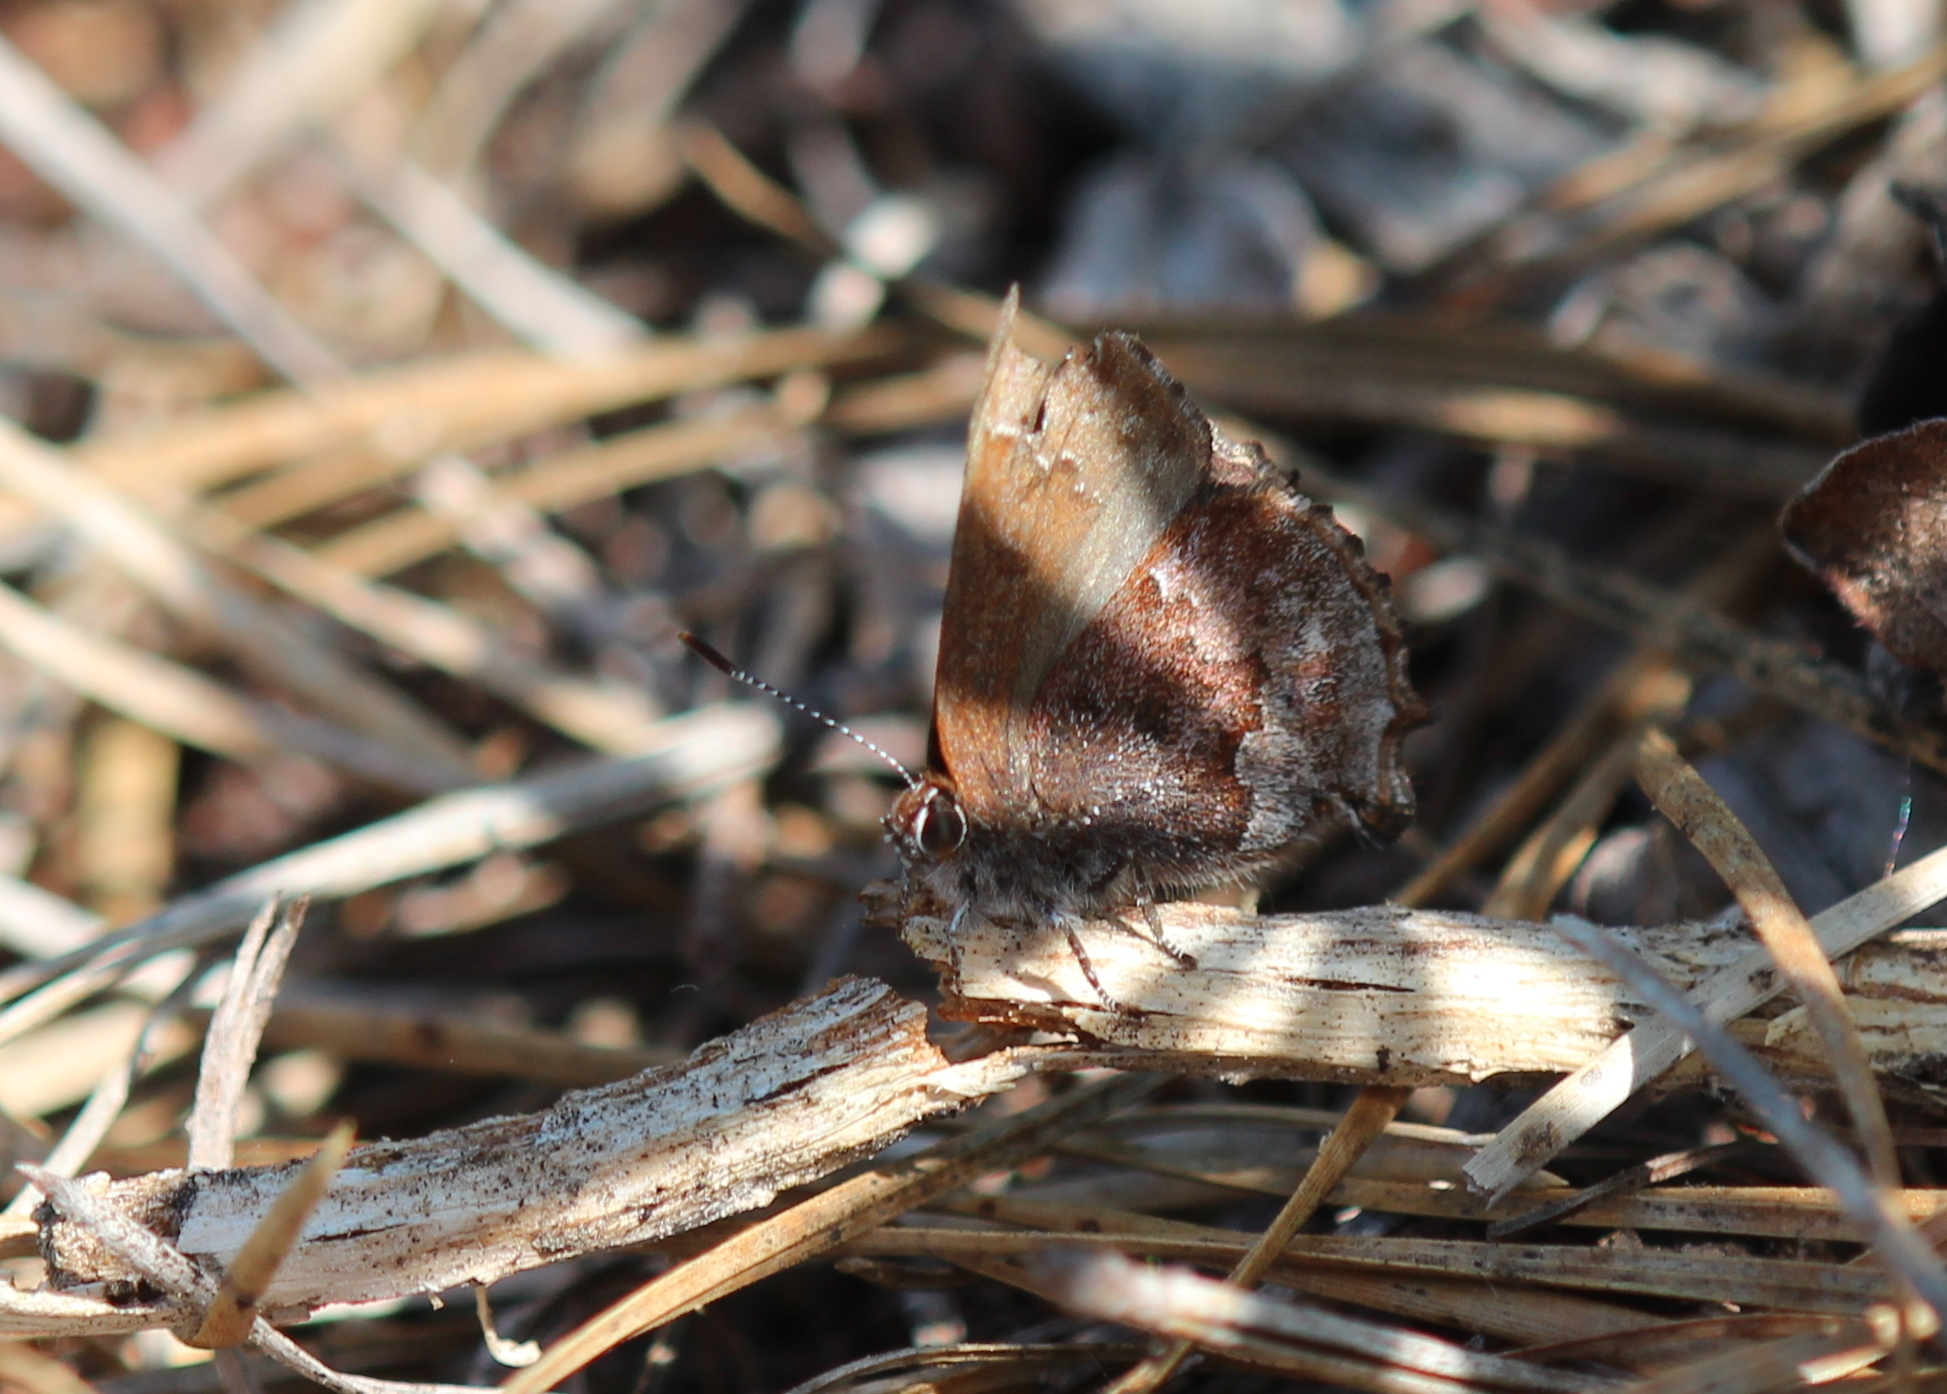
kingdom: Animalia
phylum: Arthropoda
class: Insecta
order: Lepidoptera
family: Lycaenidae
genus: Thecla
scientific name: Thecla irus
